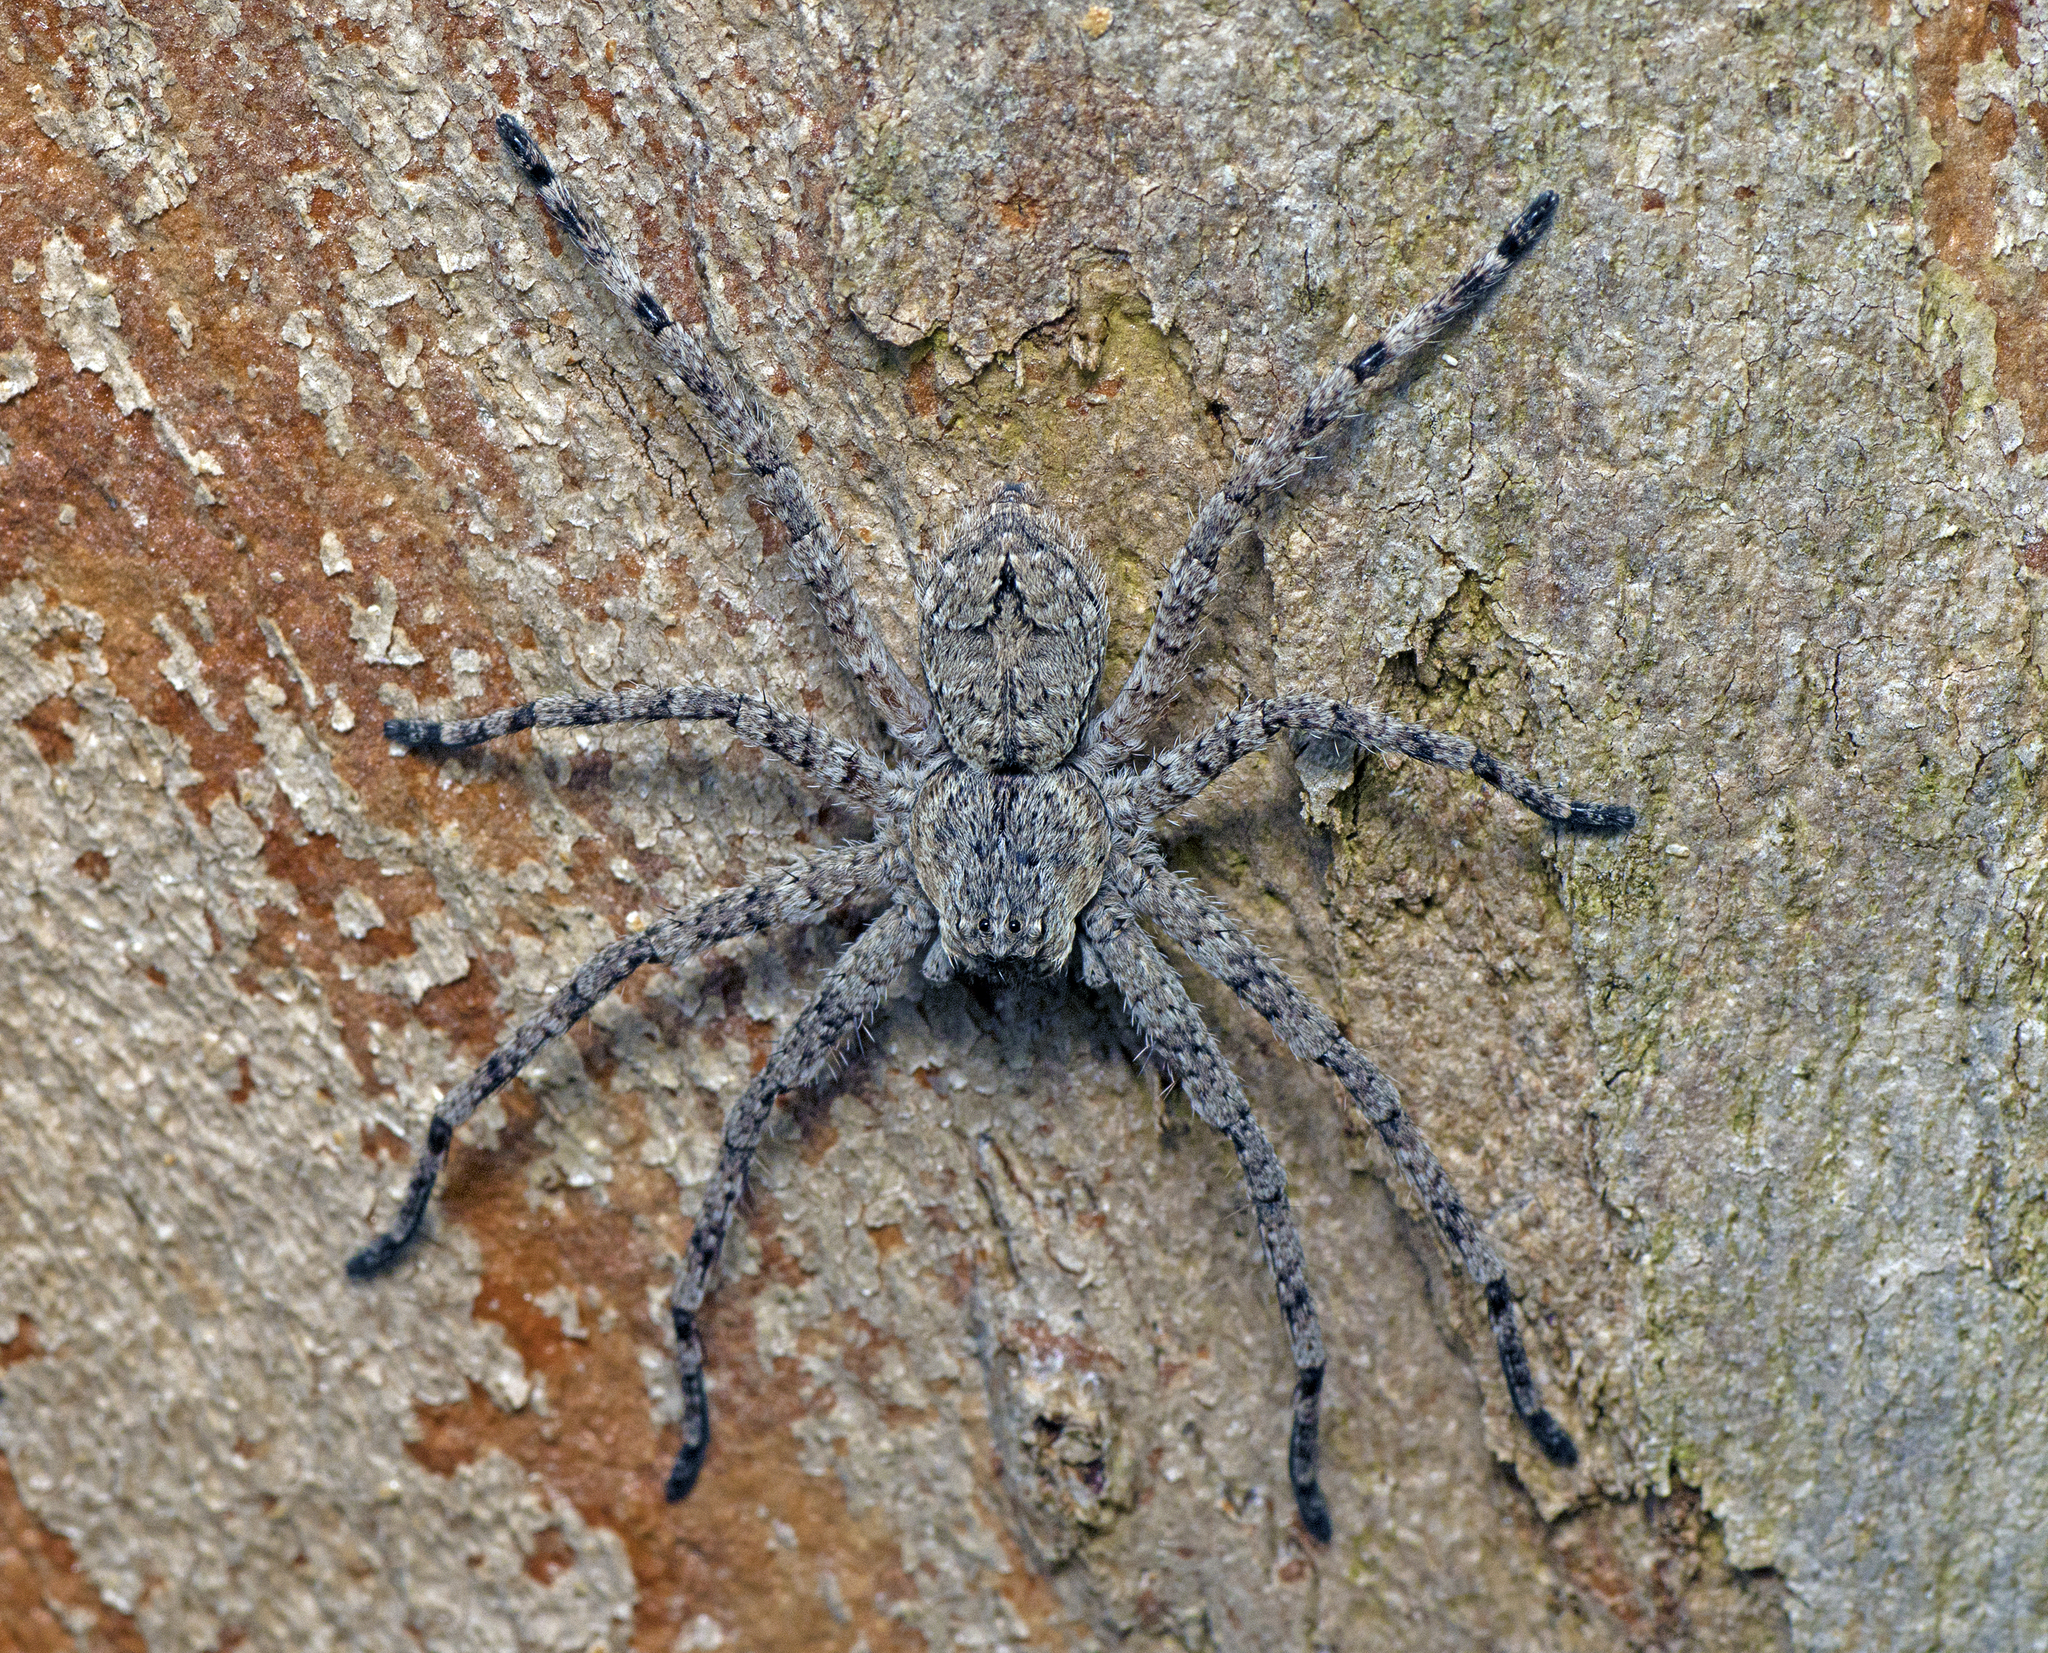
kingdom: Animalia
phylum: Arthropoda
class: Arachnida
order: Araneae
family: Sparassidae
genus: Pediana
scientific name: Pediana regina
